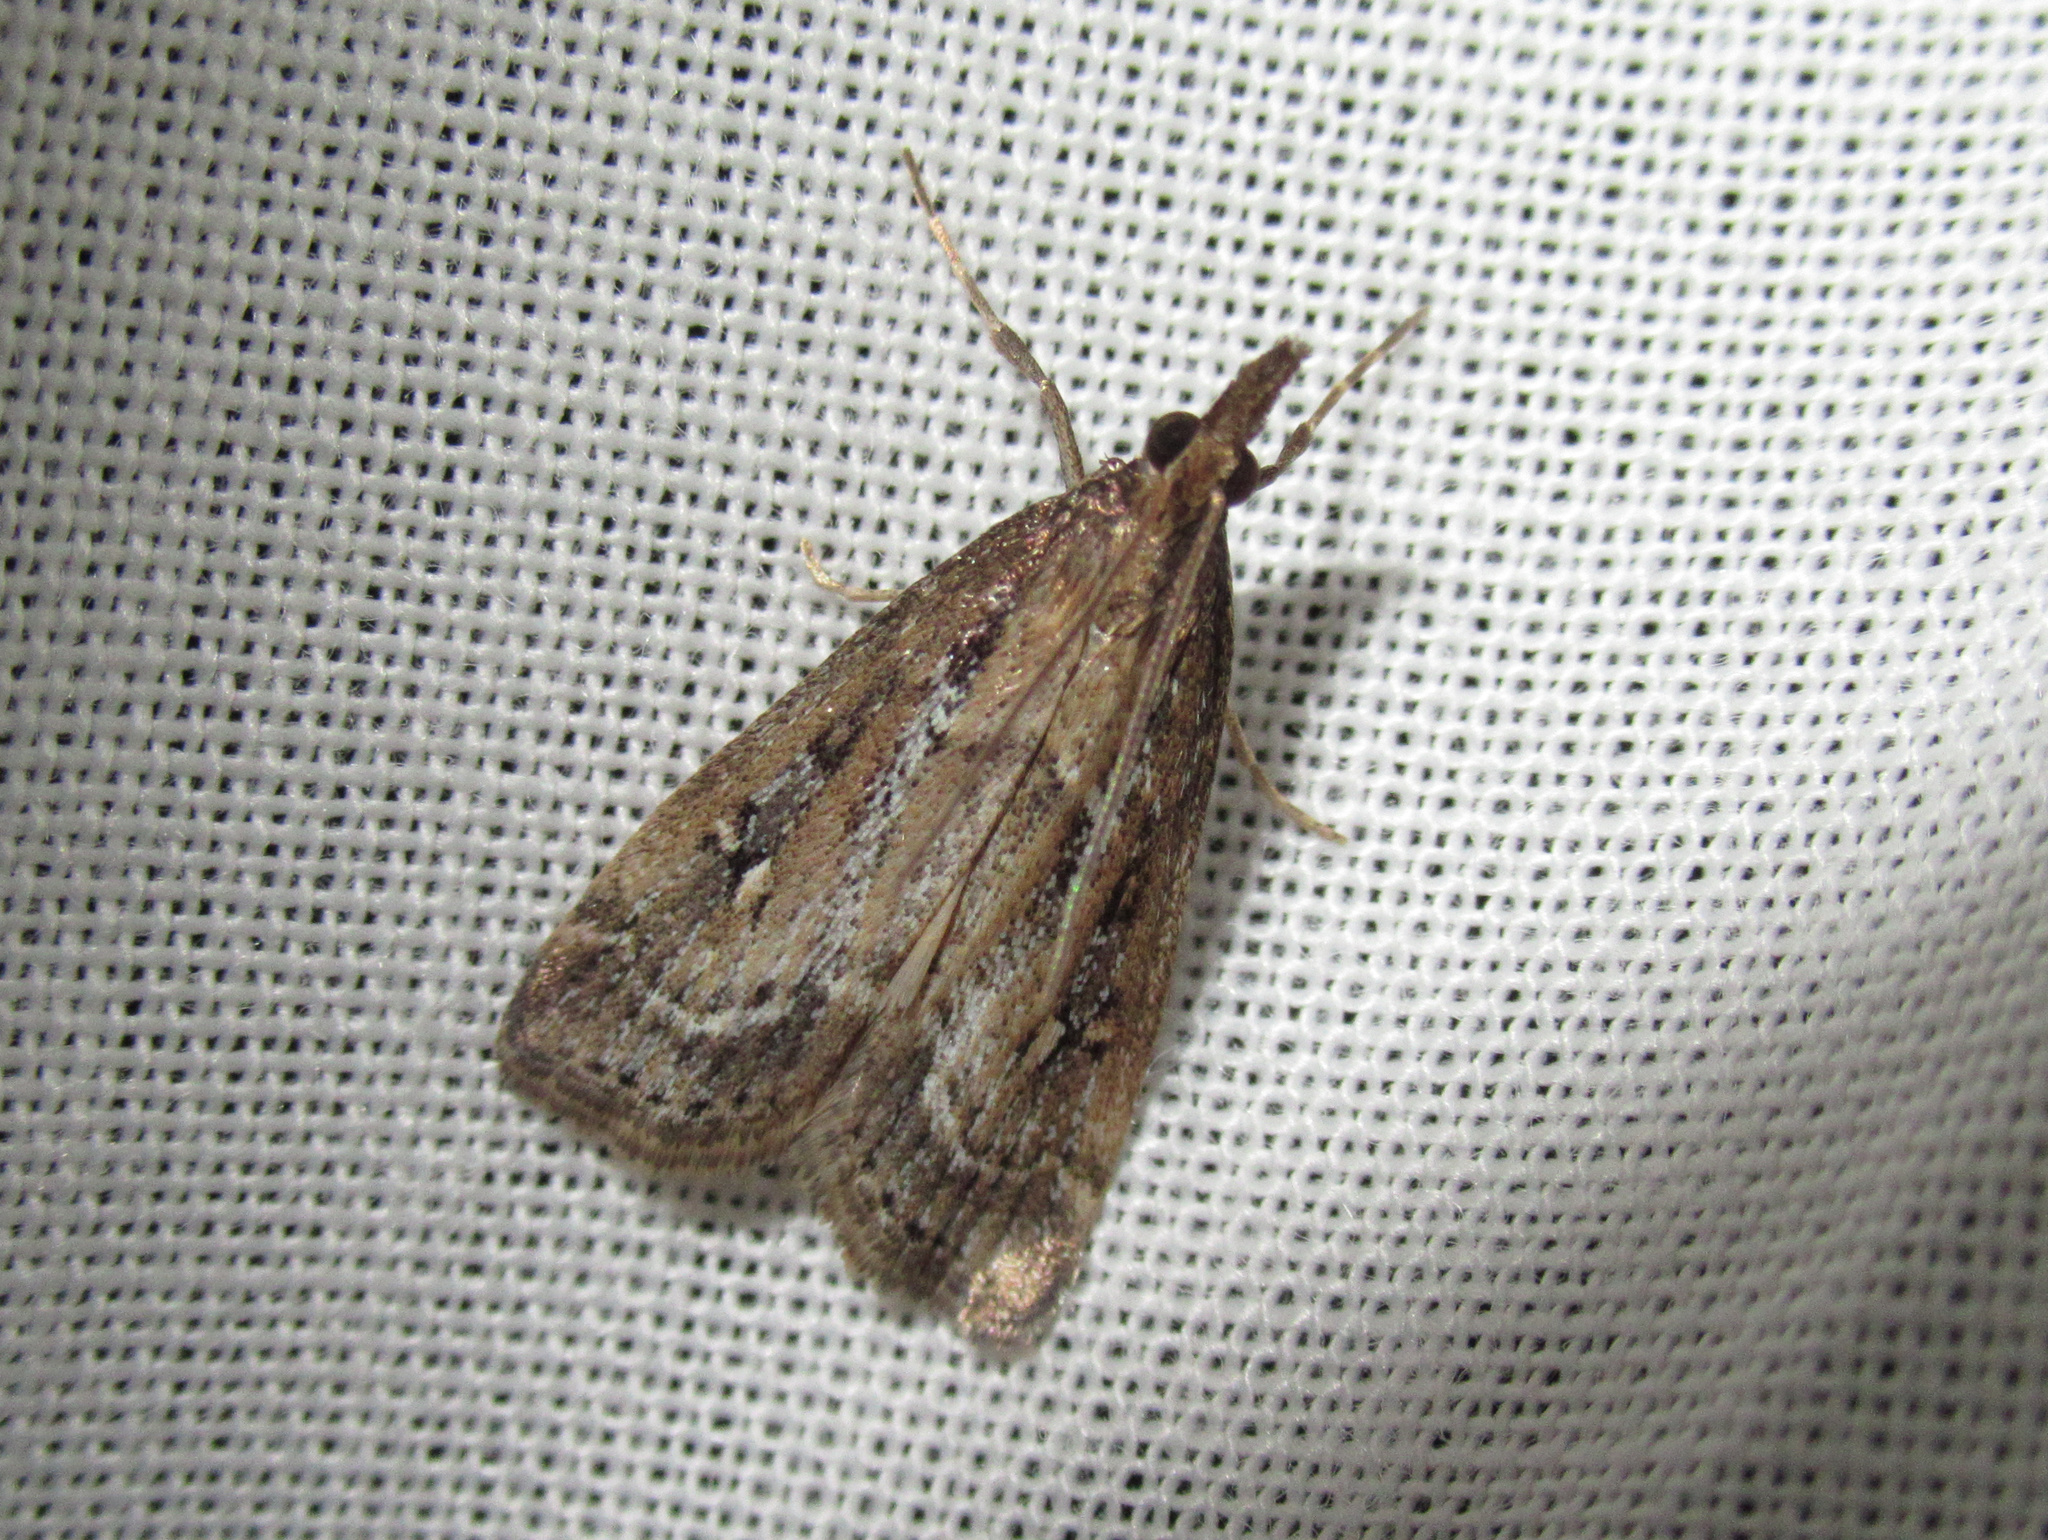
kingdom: Animalia
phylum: Arthropoda
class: Insecta
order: Lepidoptera
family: Crambidae
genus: Eudonia
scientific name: Eudonia octophora
